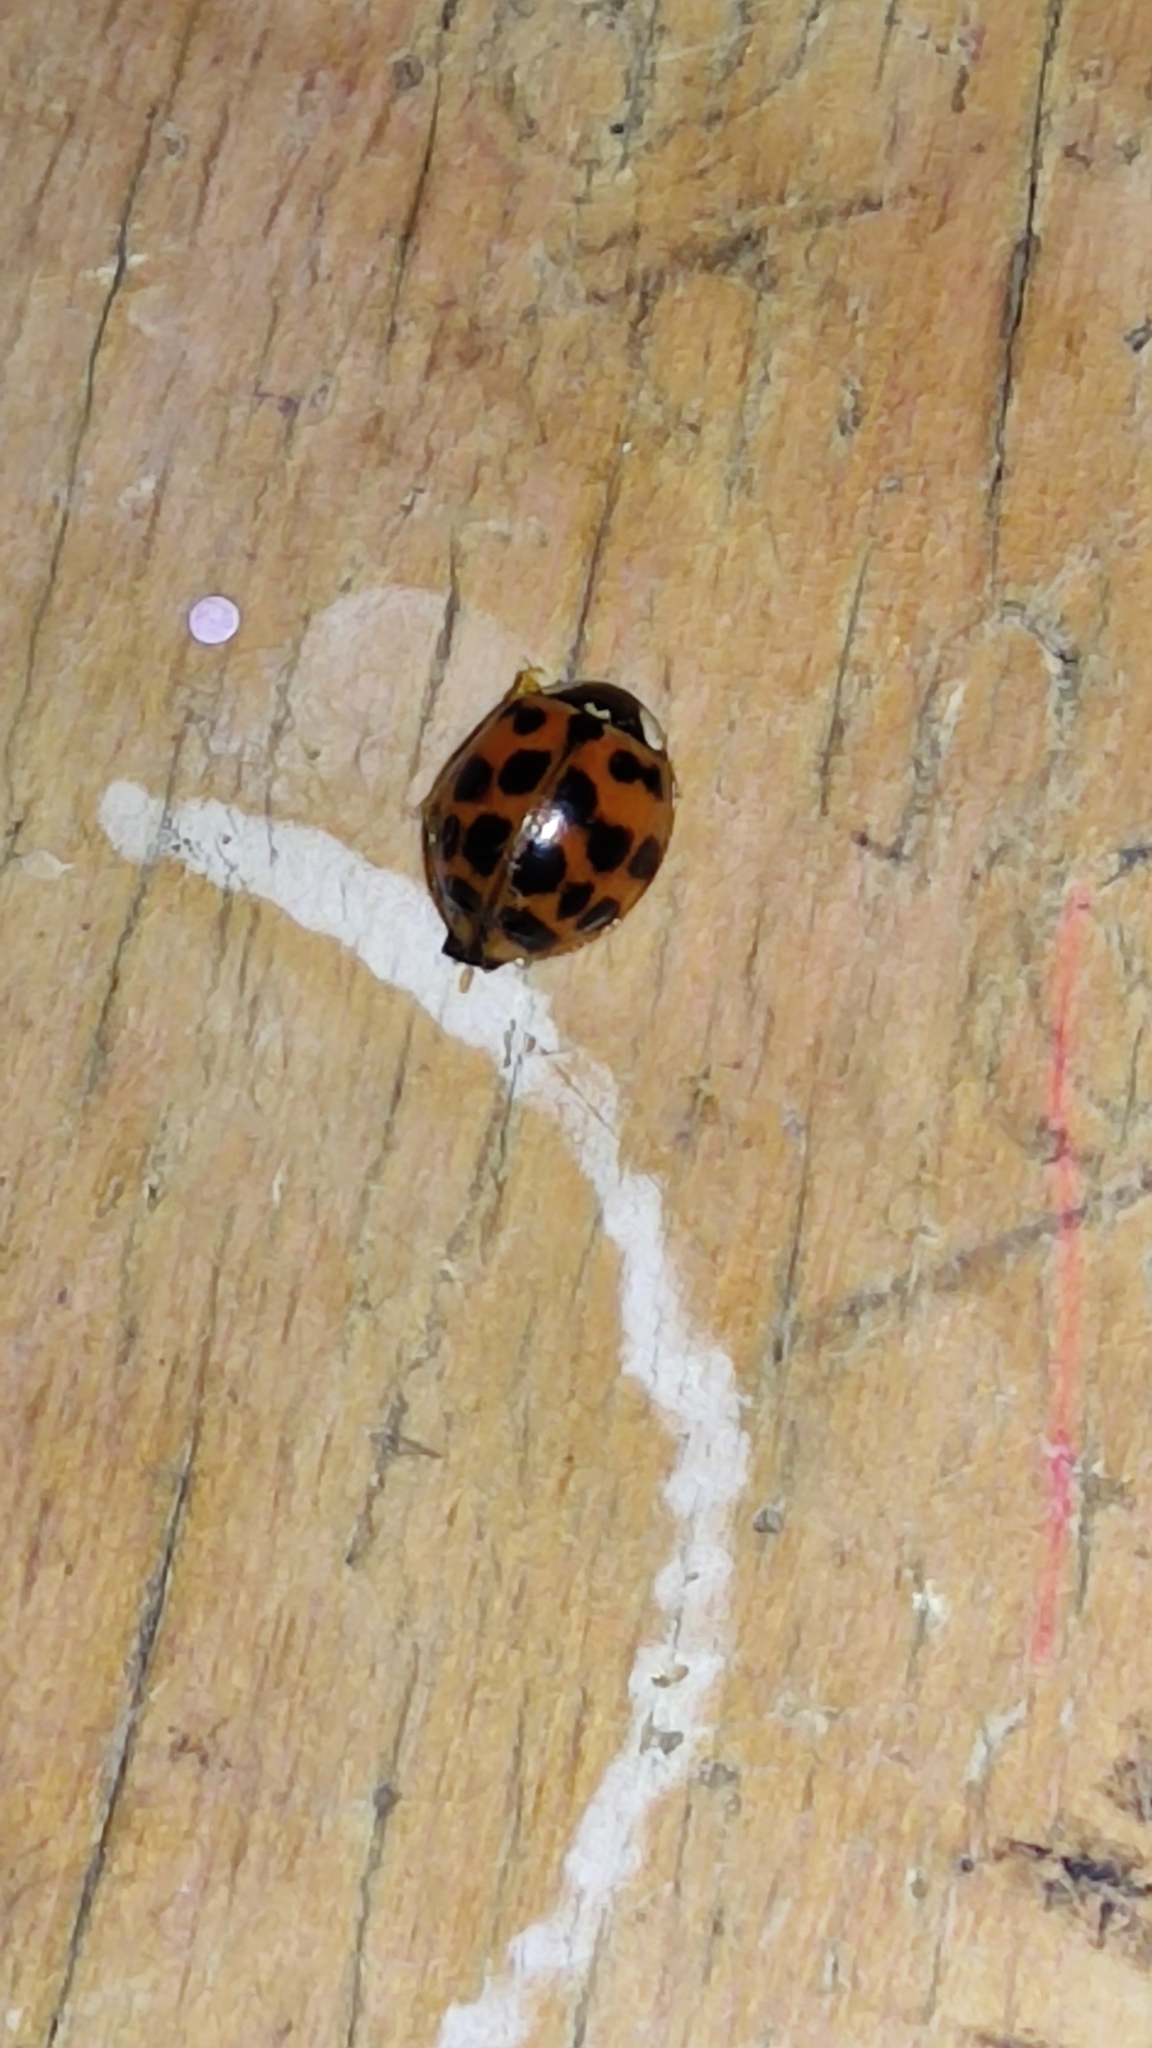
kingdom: Animalia
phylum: Arthropoda
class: Insecta
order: Coleoptera
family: Coccinellidae
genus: Harmonia
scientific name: Harmonia axyridis
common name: Harlequin ladybird
